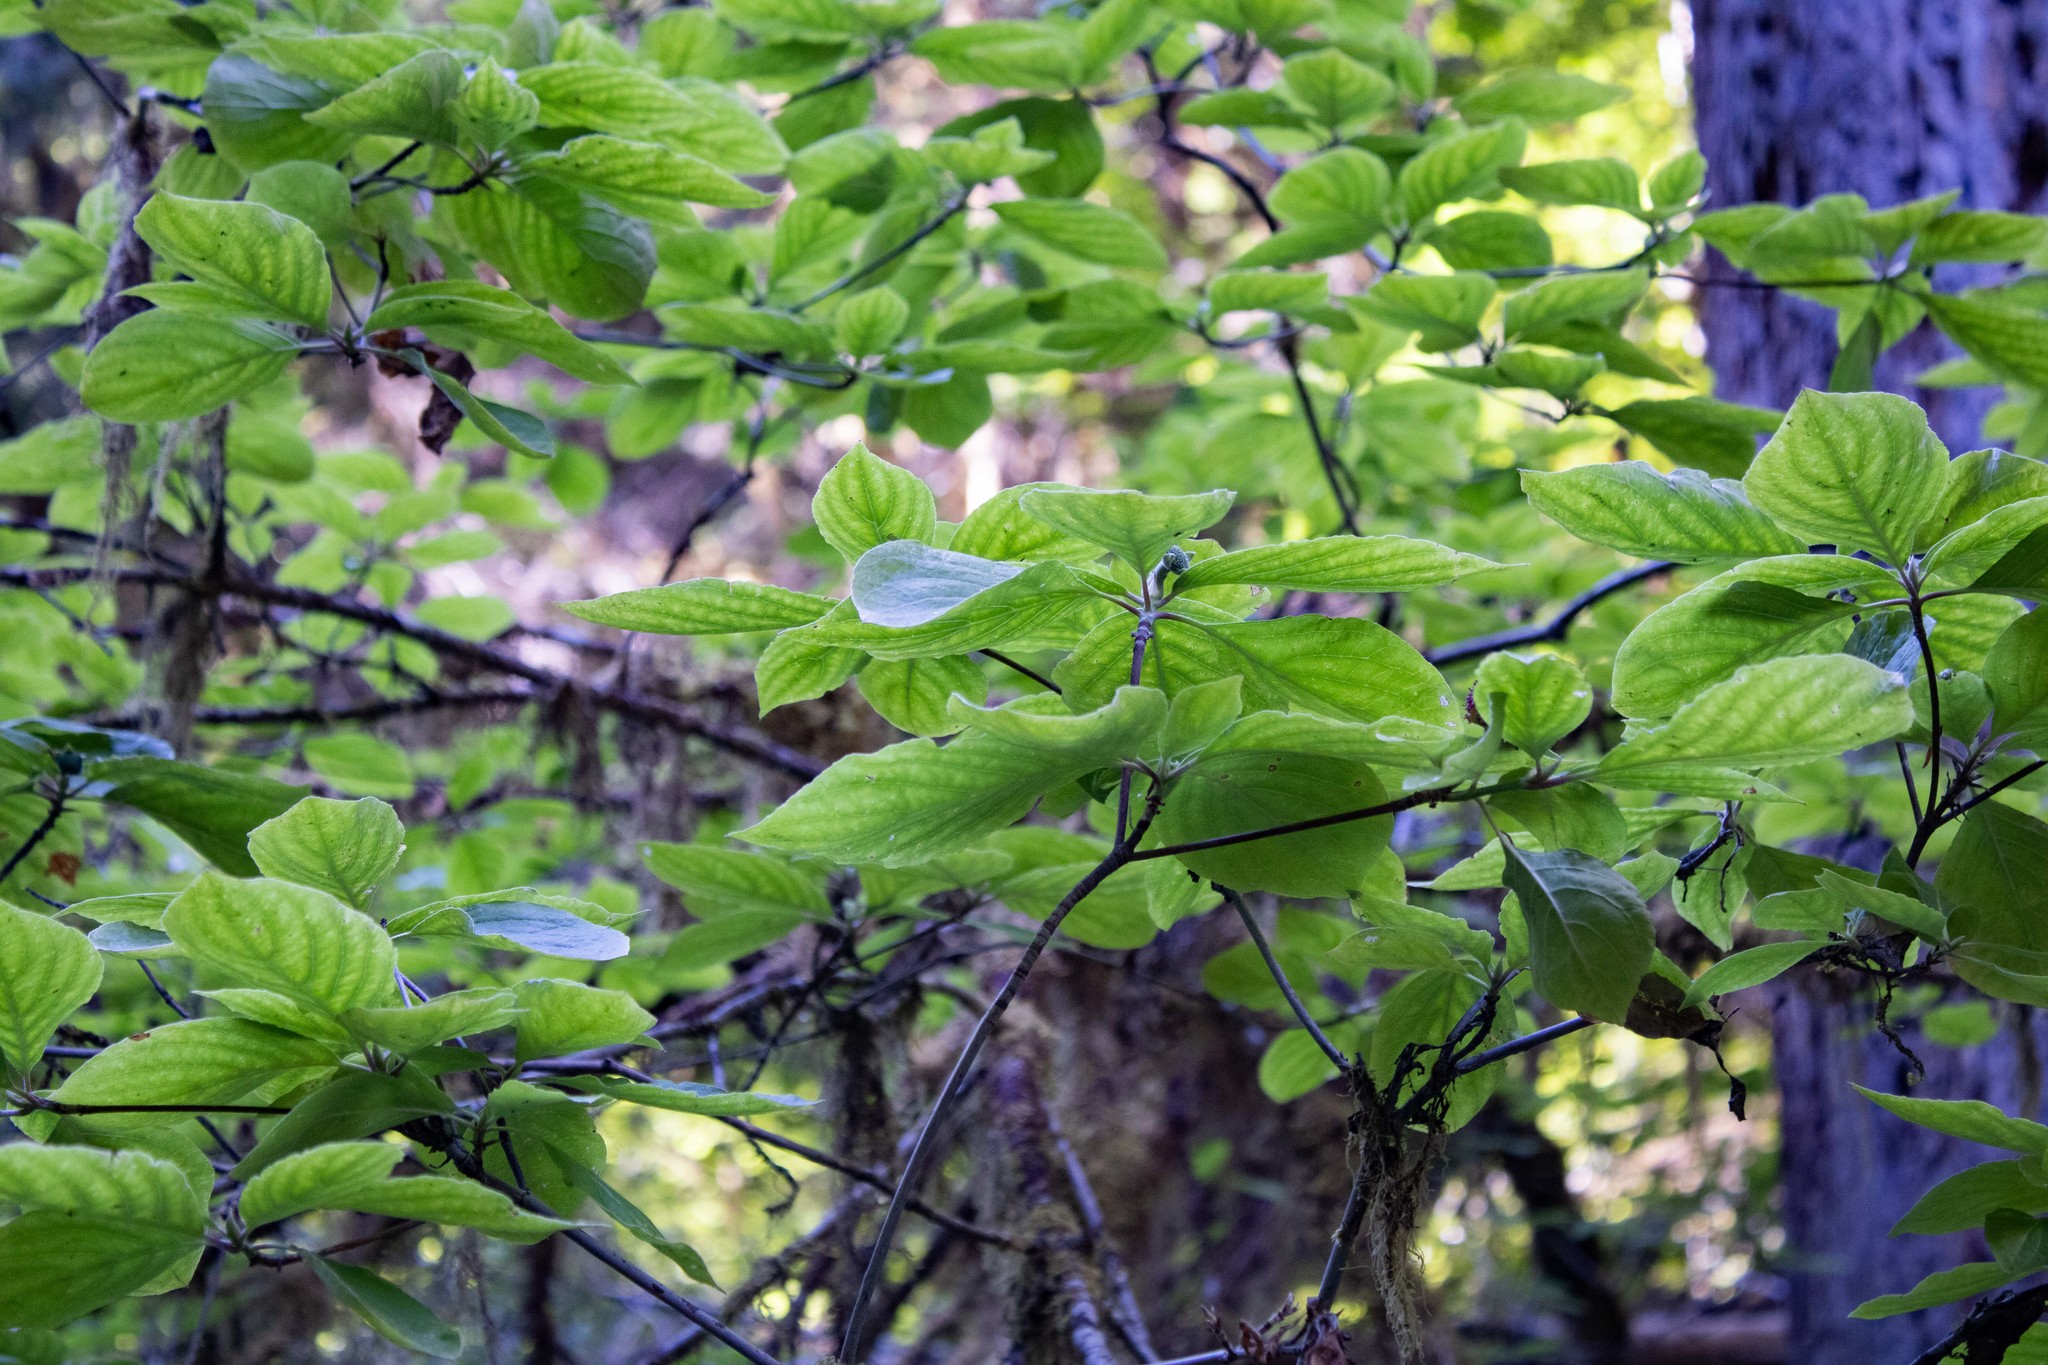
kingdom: Plantae
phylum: Tracheophyta
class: Magnoliopsida
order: Cornales
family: Cornaceae
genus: Cornus
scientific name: Cornus nuttallii
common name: Pacific dogwood
